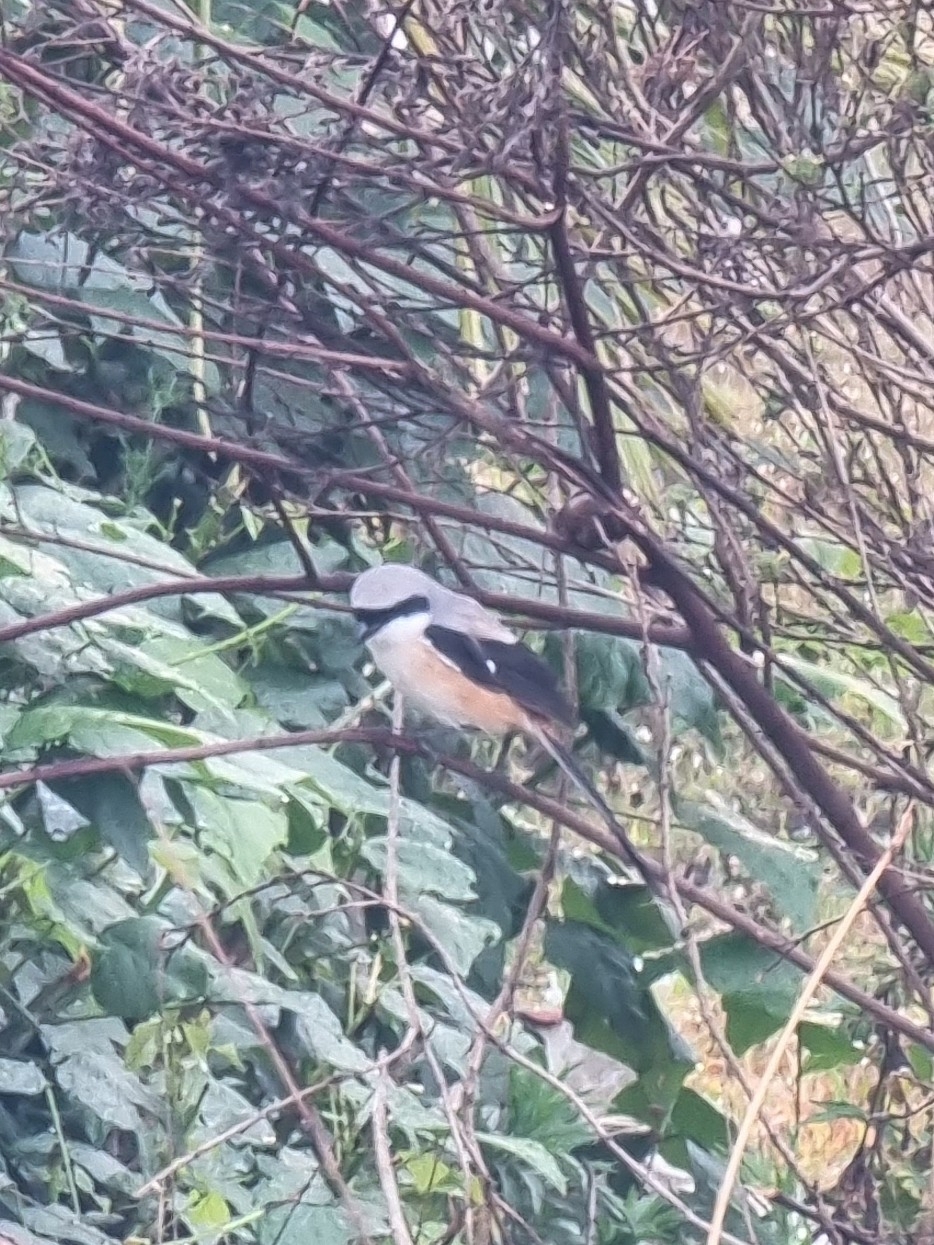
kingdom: Animalia
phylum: Chordata
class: Aves
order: Passeriformes
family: Laniidae
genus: Lanius
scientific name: Lanius schach
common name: Long-tailed shrike
